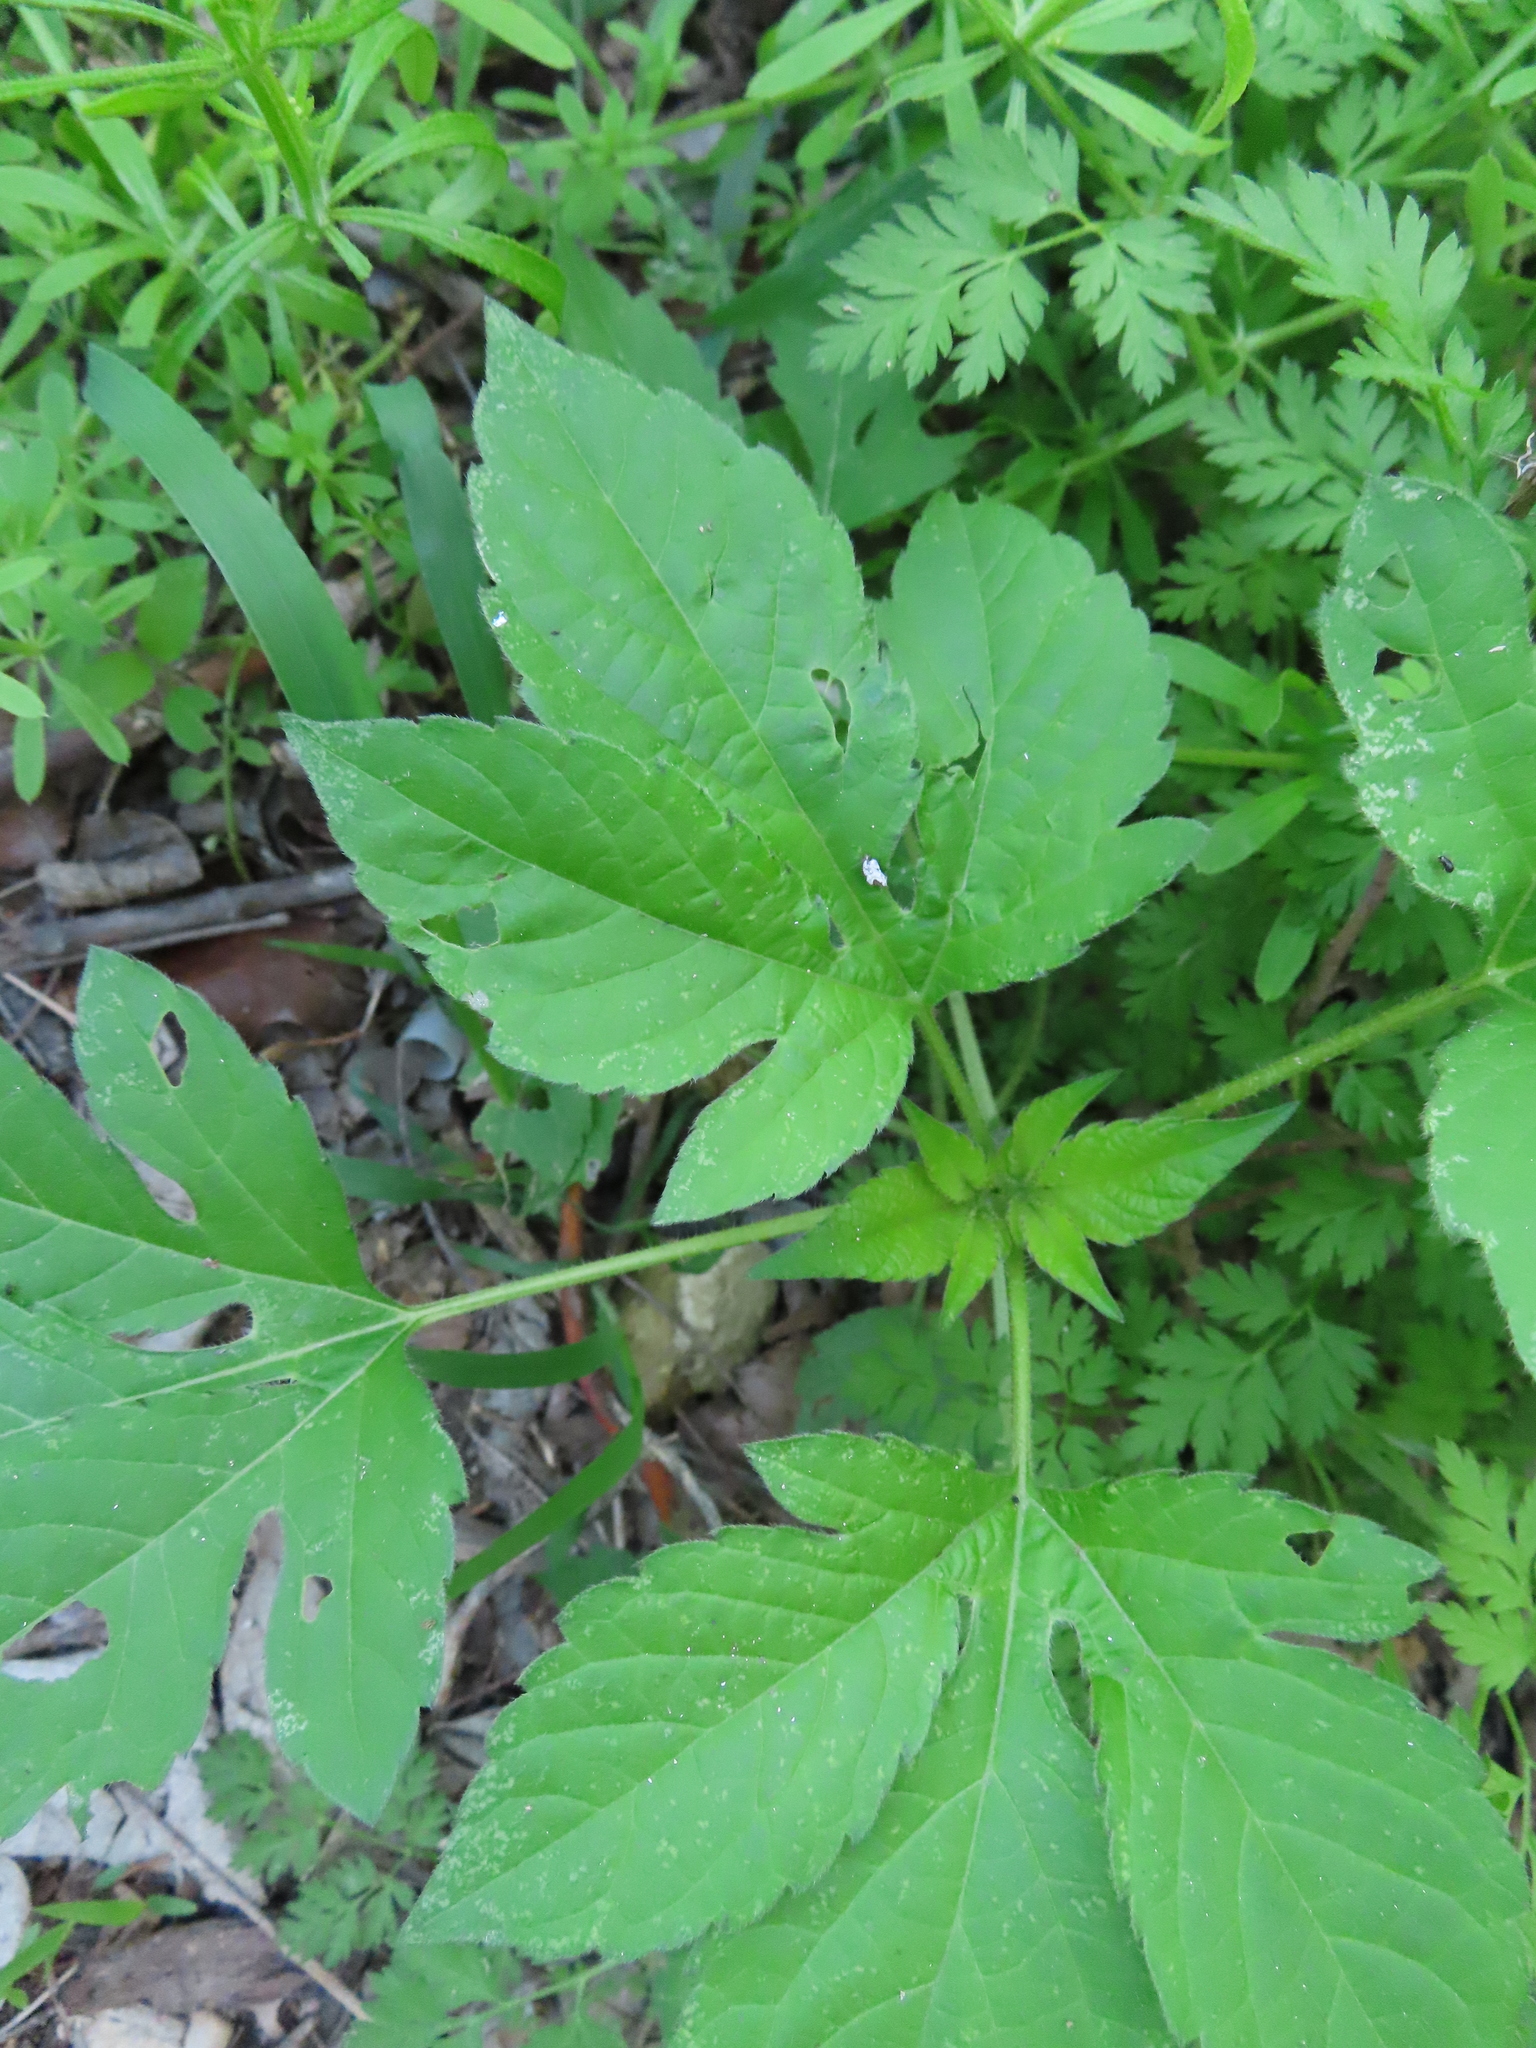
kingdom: Plantae
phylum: Tracheophyta
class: Magnoliopsida
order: Asterales
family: Asteraceae
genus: Ambrosia
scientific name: Ambrosia trifida
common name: Giant ragweed
